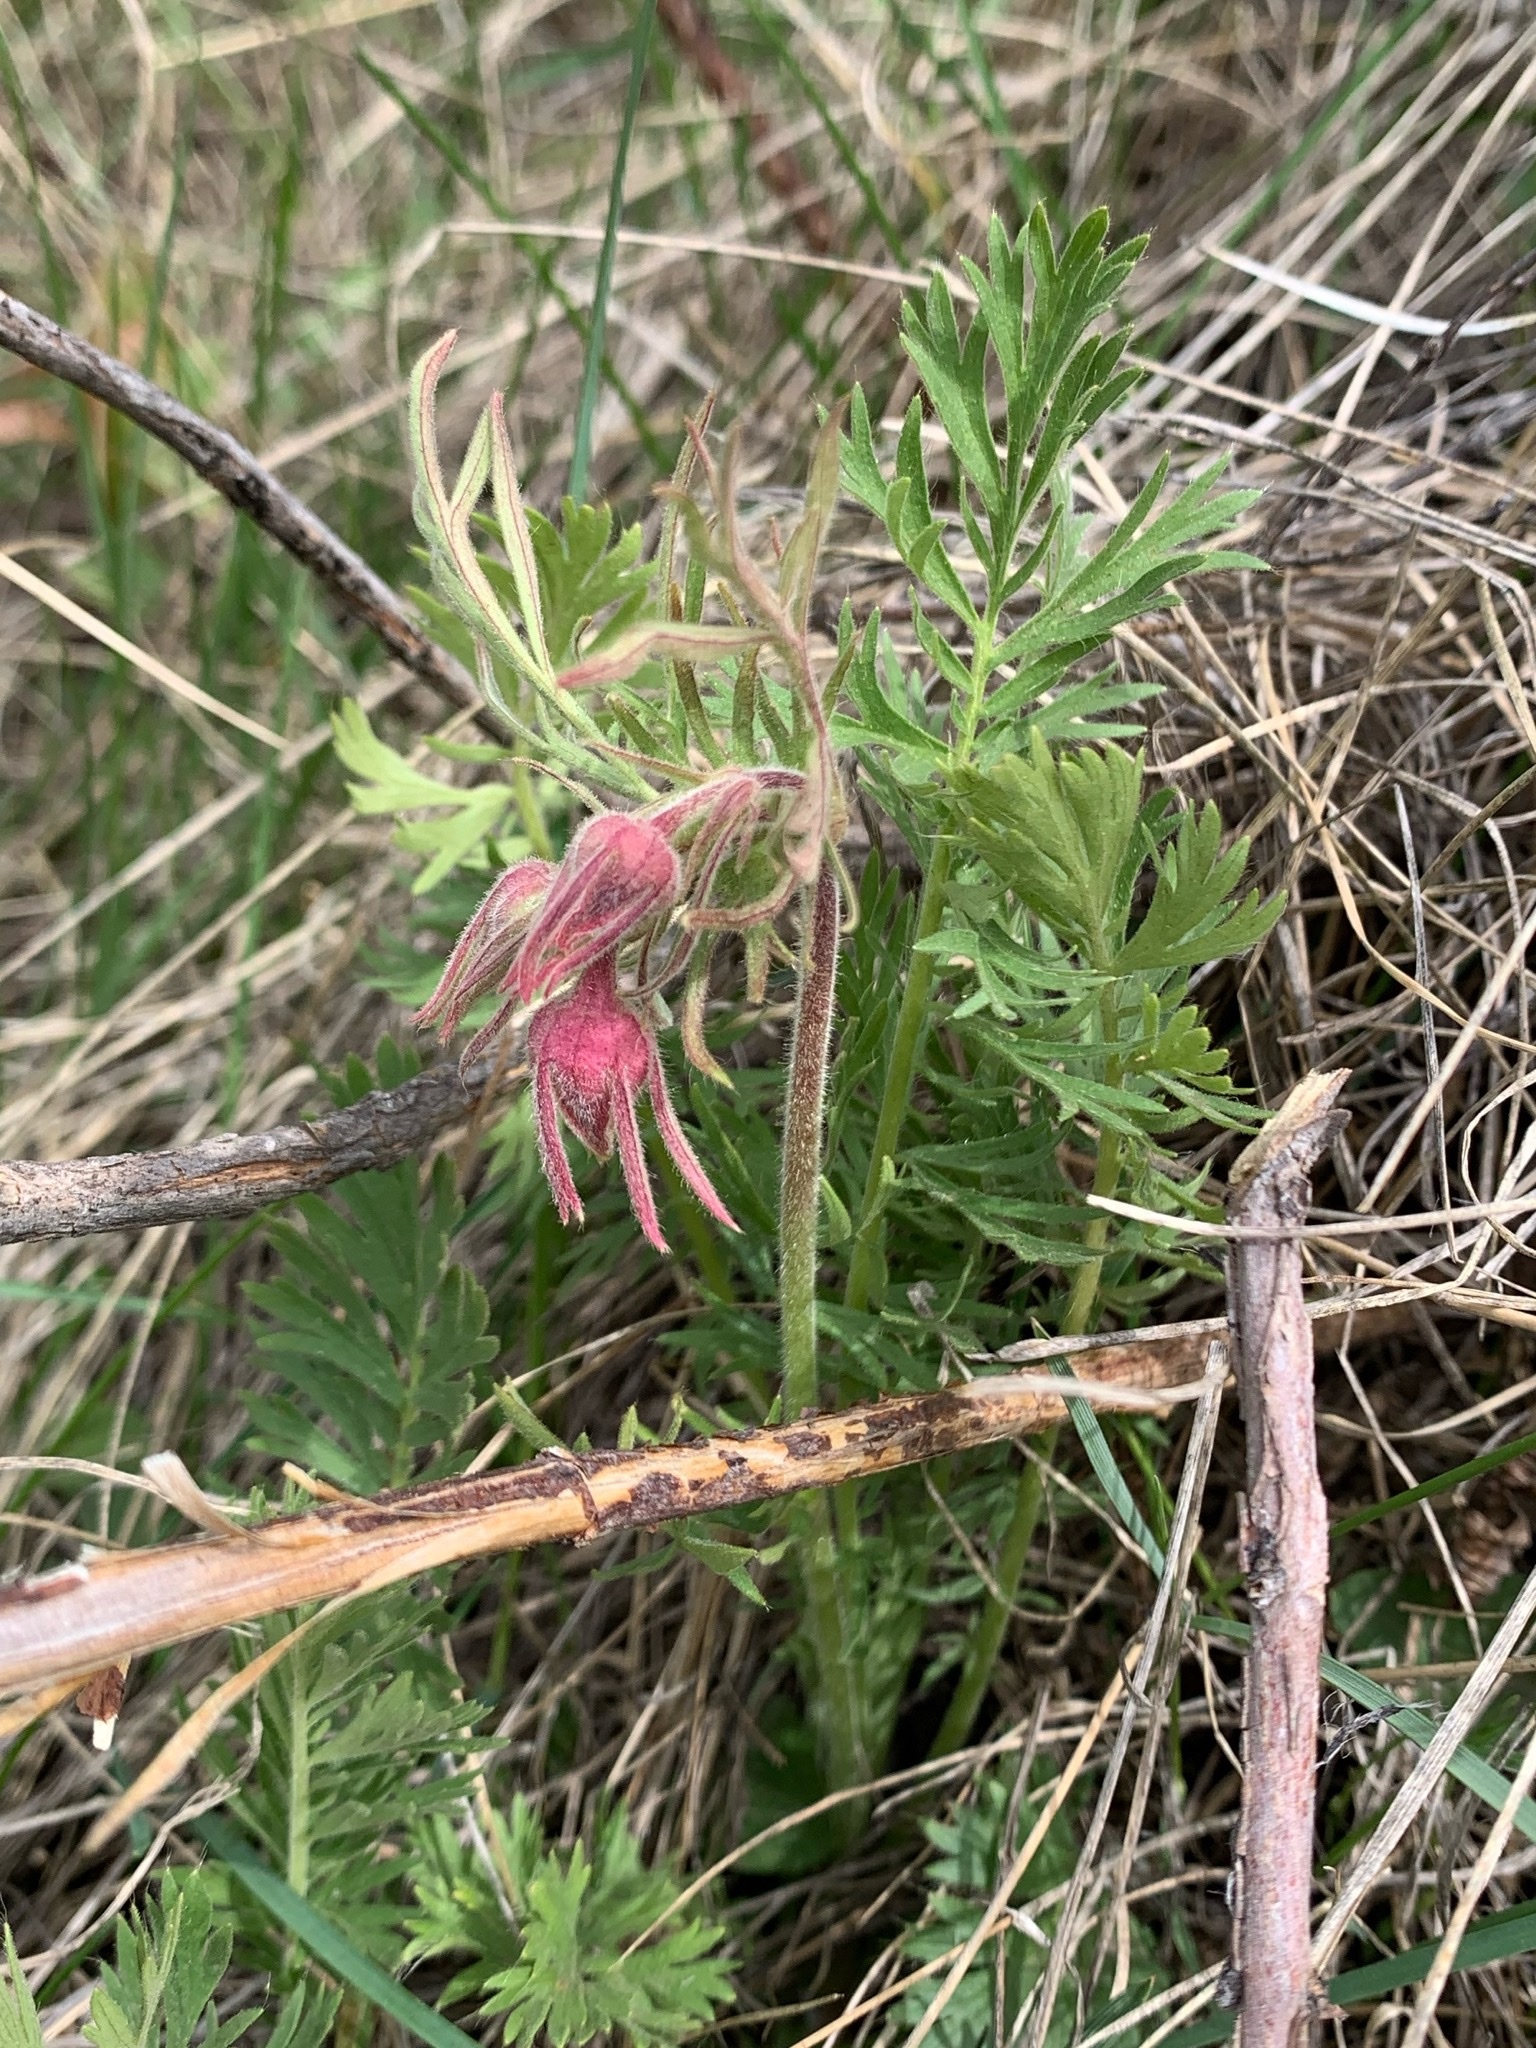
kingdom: Plantae
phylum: Tracheophyta
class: Magnoliopsida
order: Rosales
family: Rosaceae
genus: Geum
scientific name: Geum triflorum
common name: Old man's whiskers
